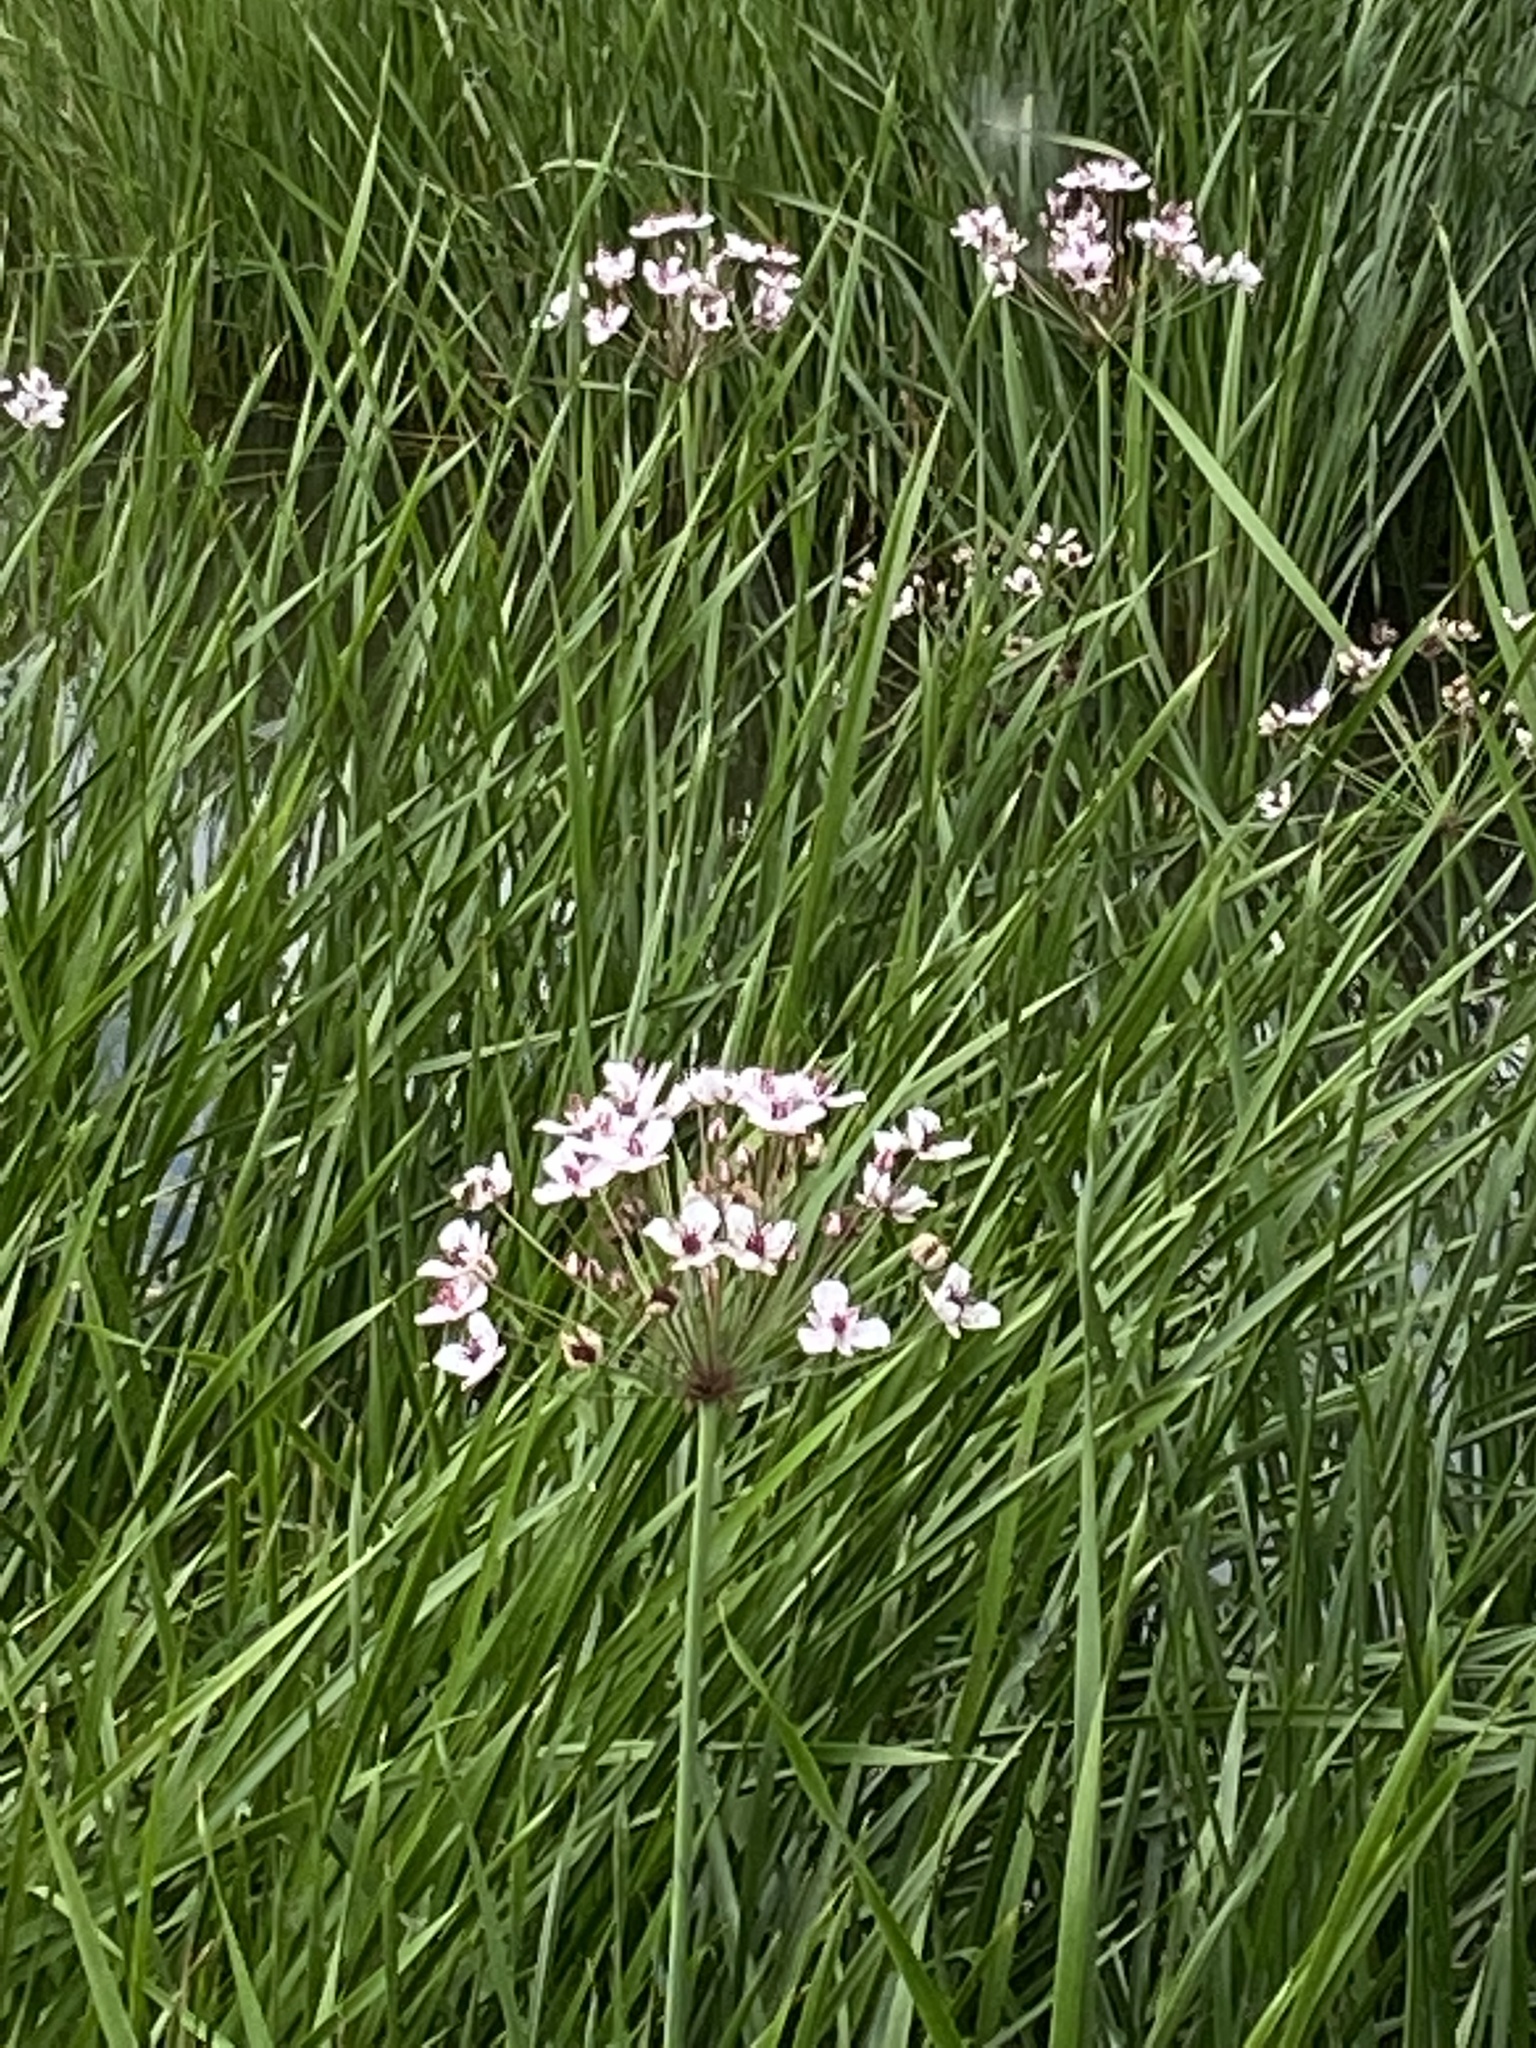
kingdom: Plantae
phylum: Tracheophyta
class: Liliopsida
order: Alismatales
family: Butomaceae
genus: Butomus
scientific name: Butomus umbellatus
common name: Flowering-rush
